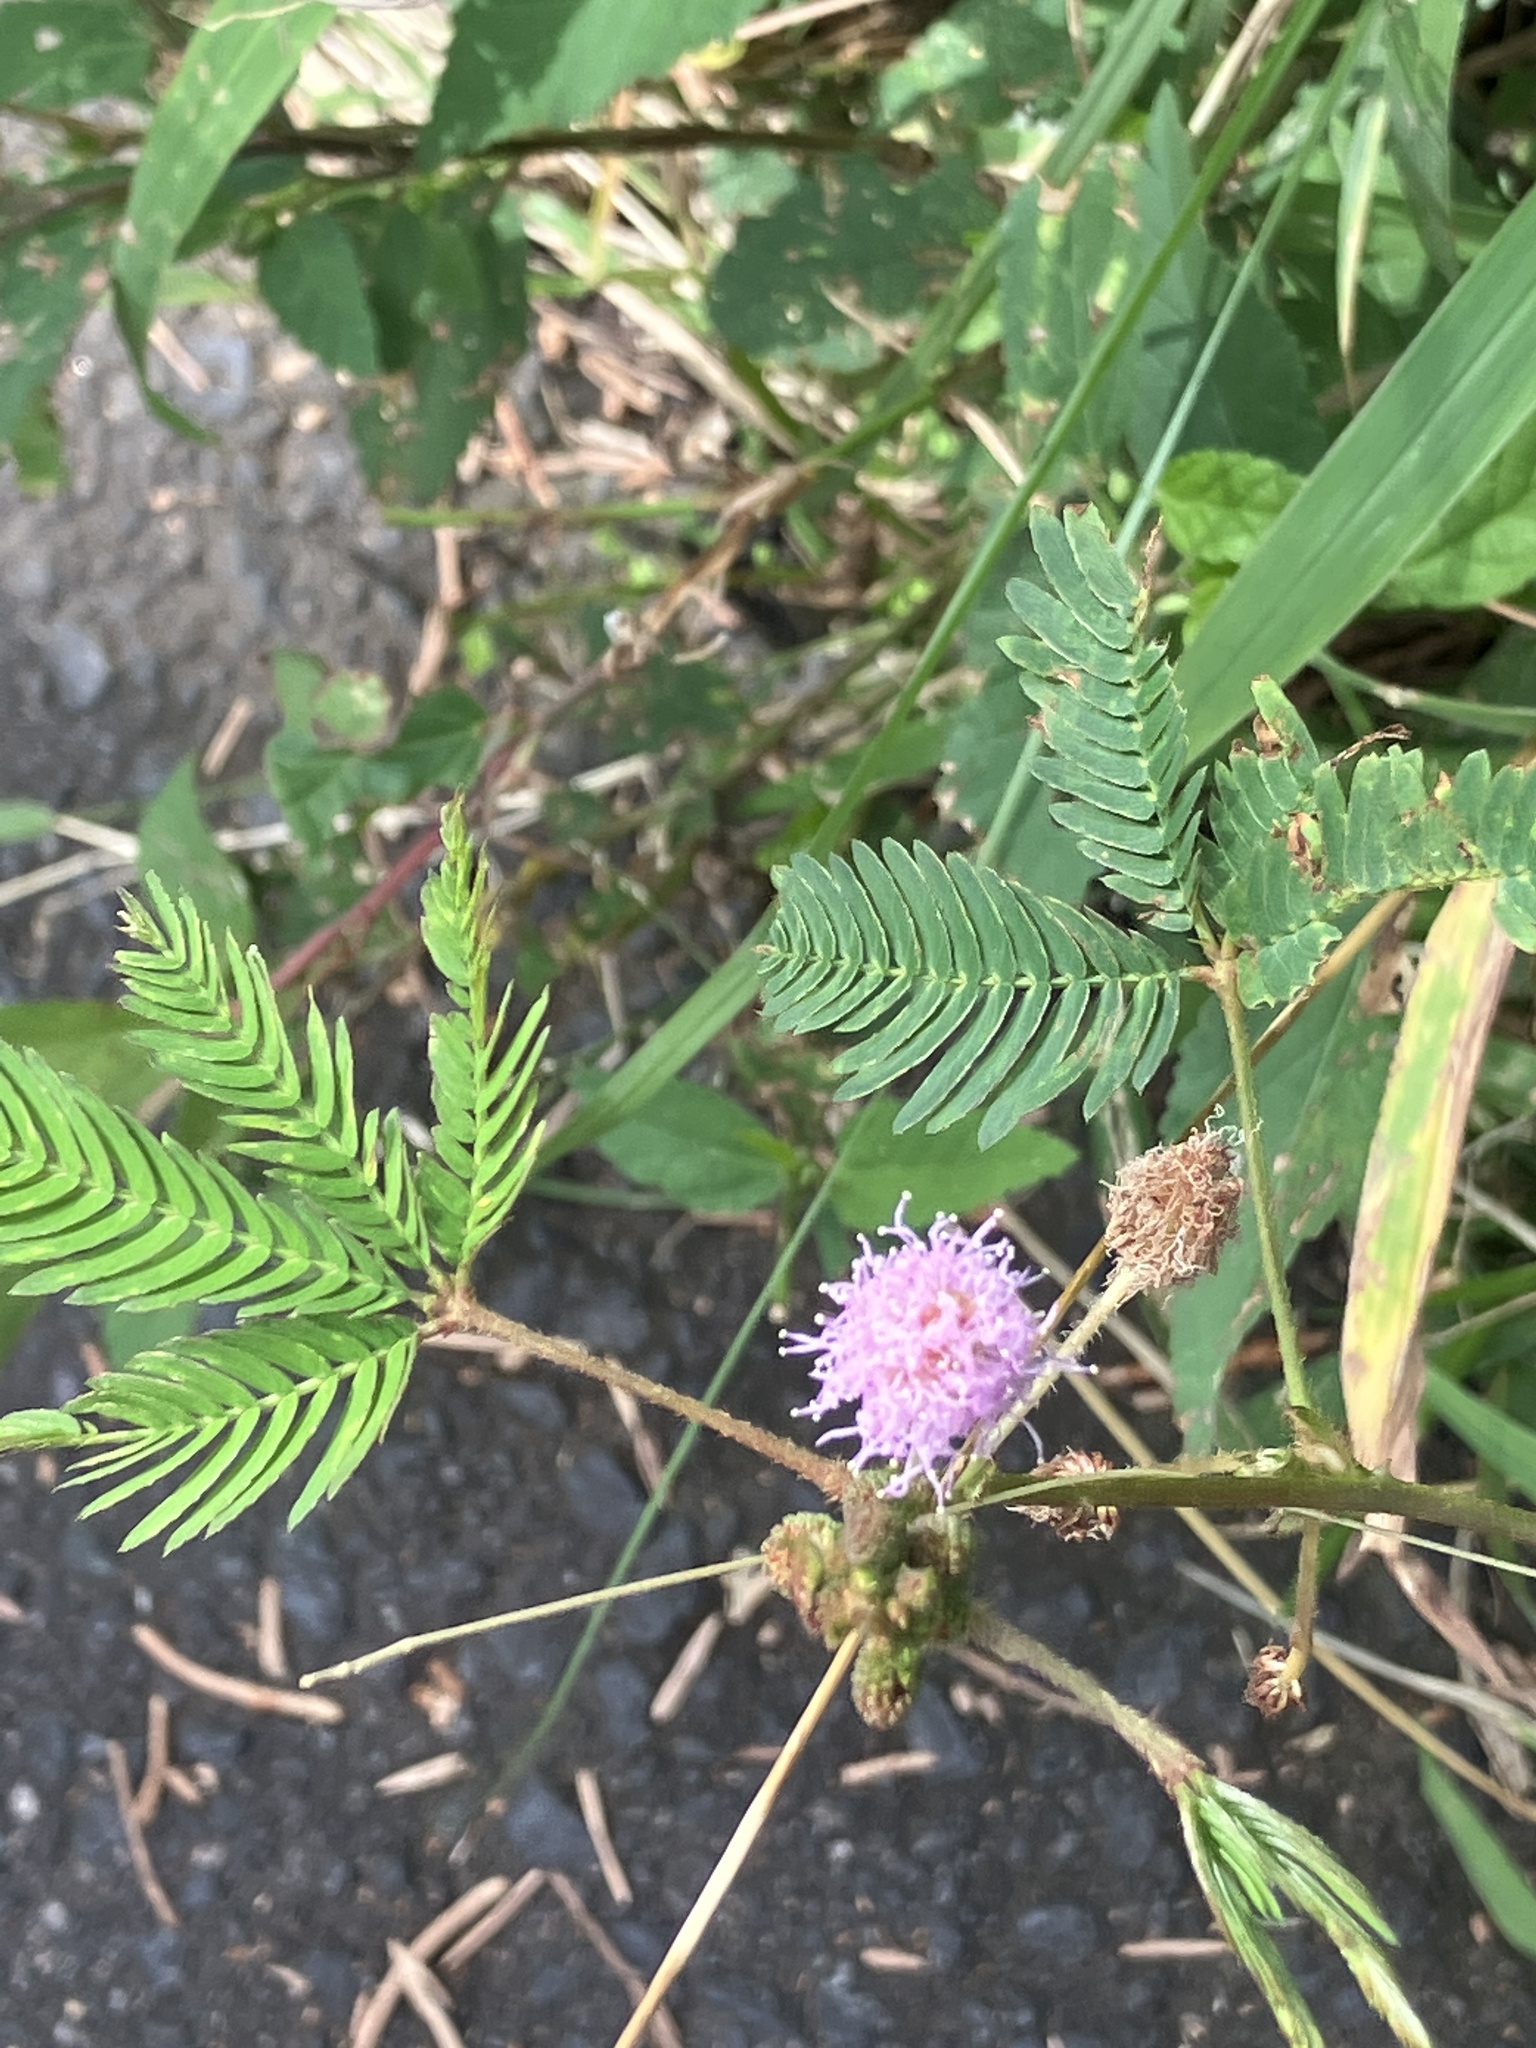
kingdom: Plantae
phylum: Tracheophyta
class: Magnoliopsida
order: Fabales
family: Fabaceae
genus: Mimosa
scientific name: Mimosa pudica
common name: Sensitive plant
